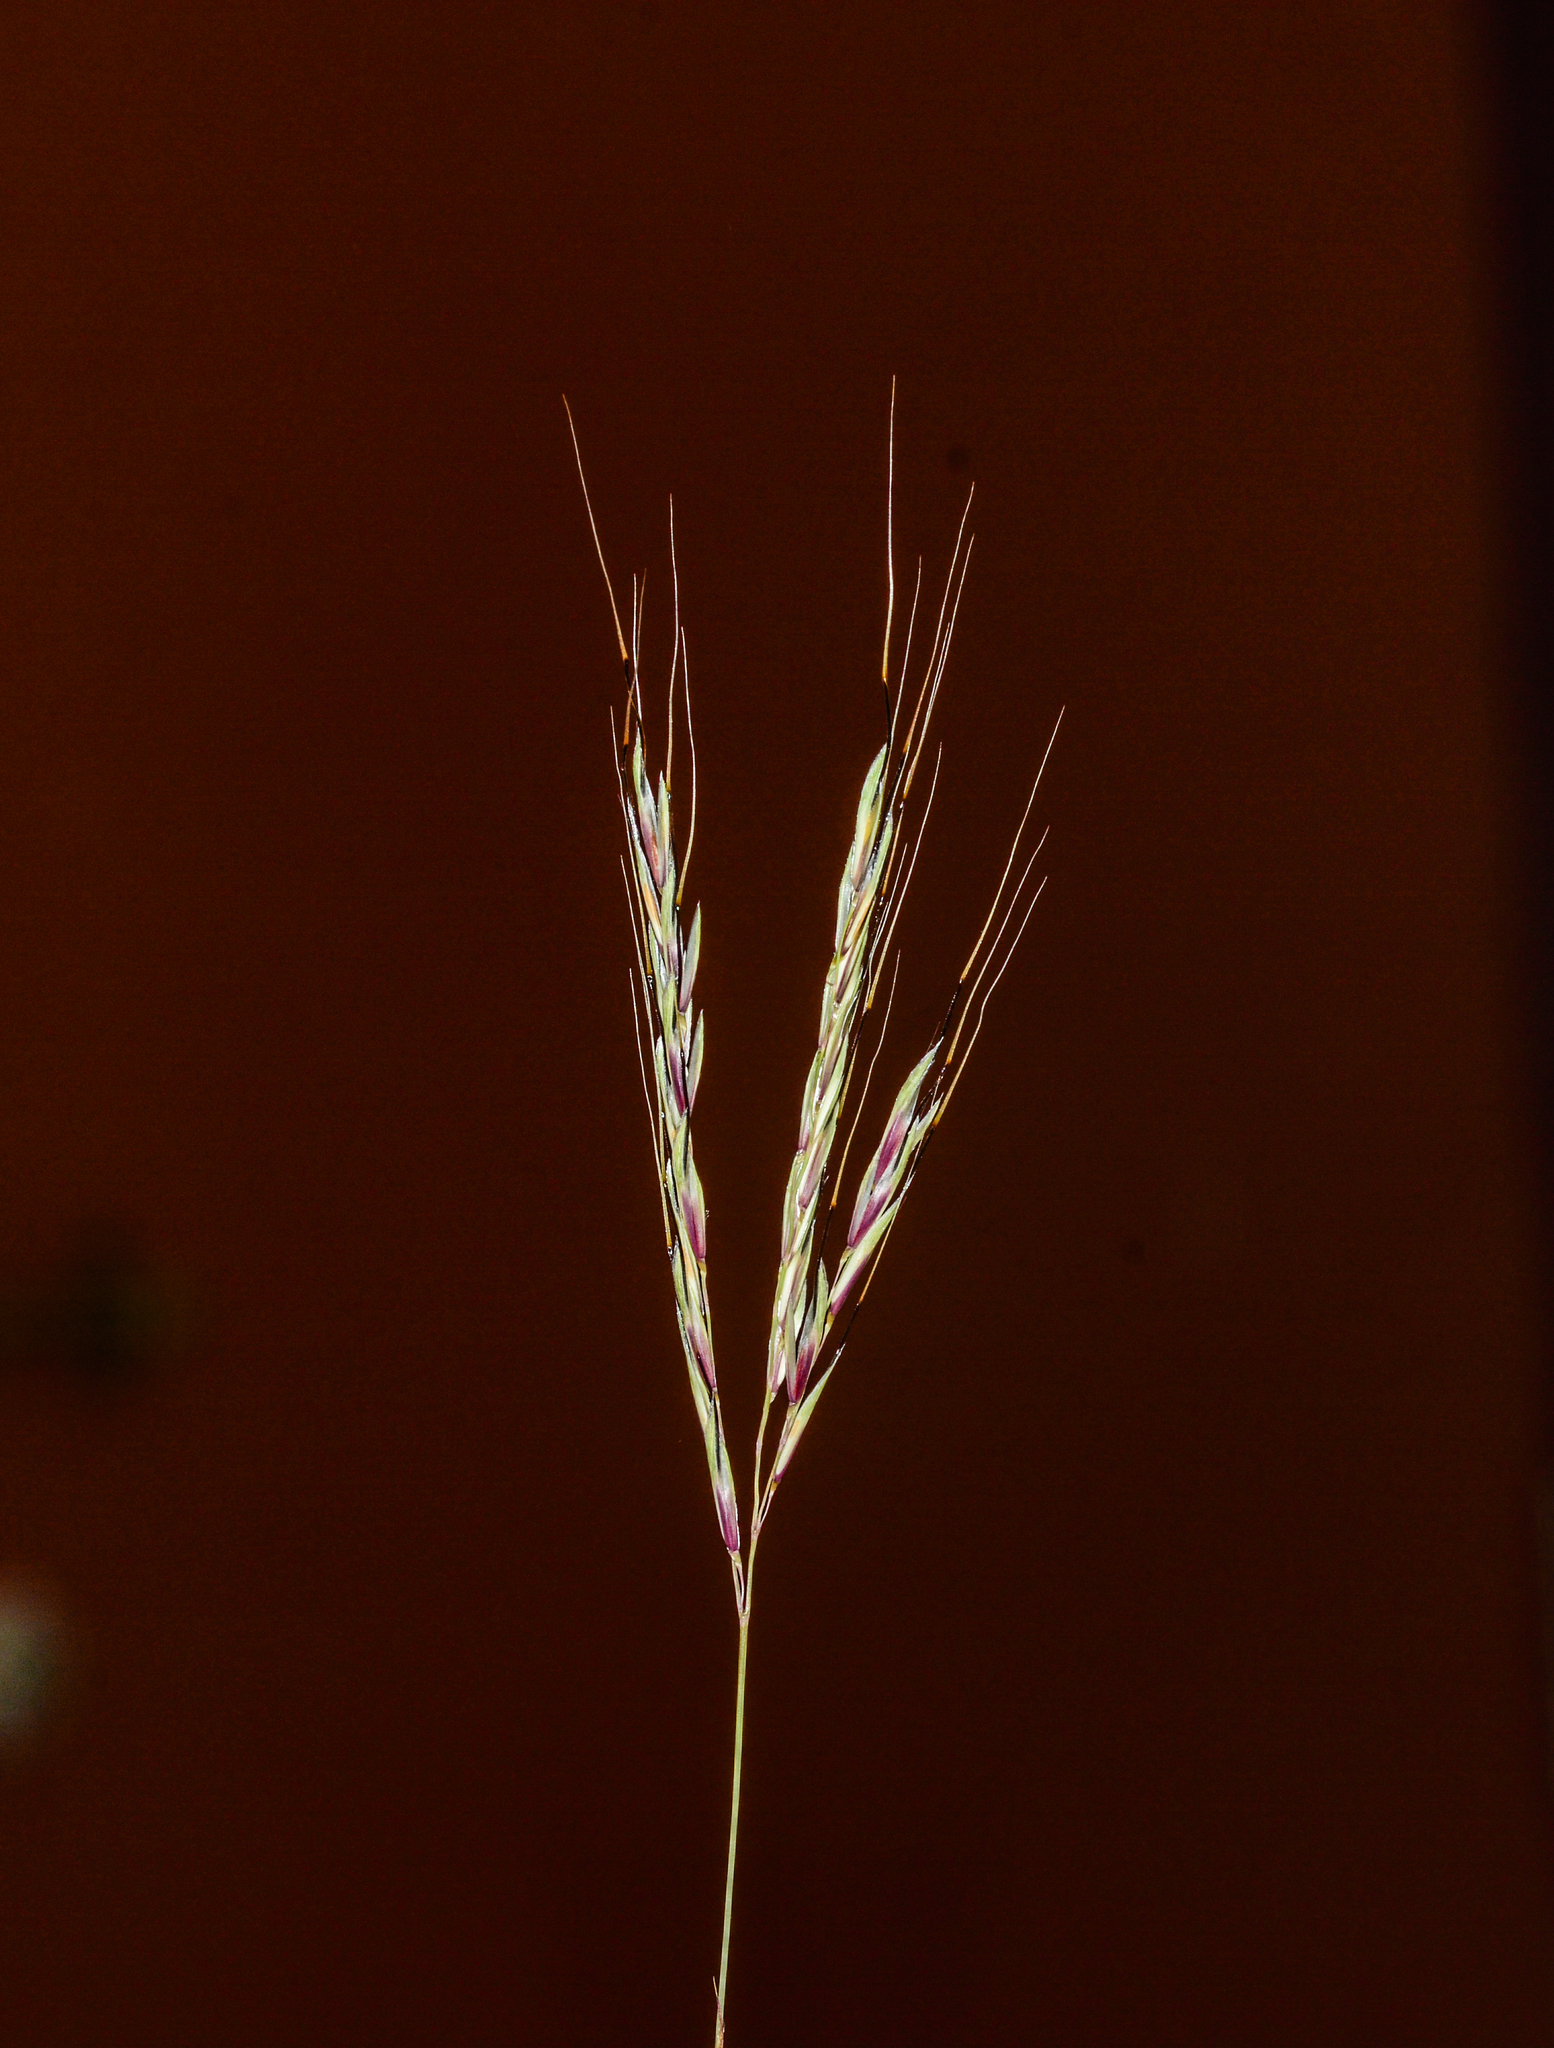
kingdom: Plantae
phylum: Tracheophyta
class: Liliopsida
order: Poales
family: Poaceae
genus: Dimeria
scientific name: Dimeria stapfiana
